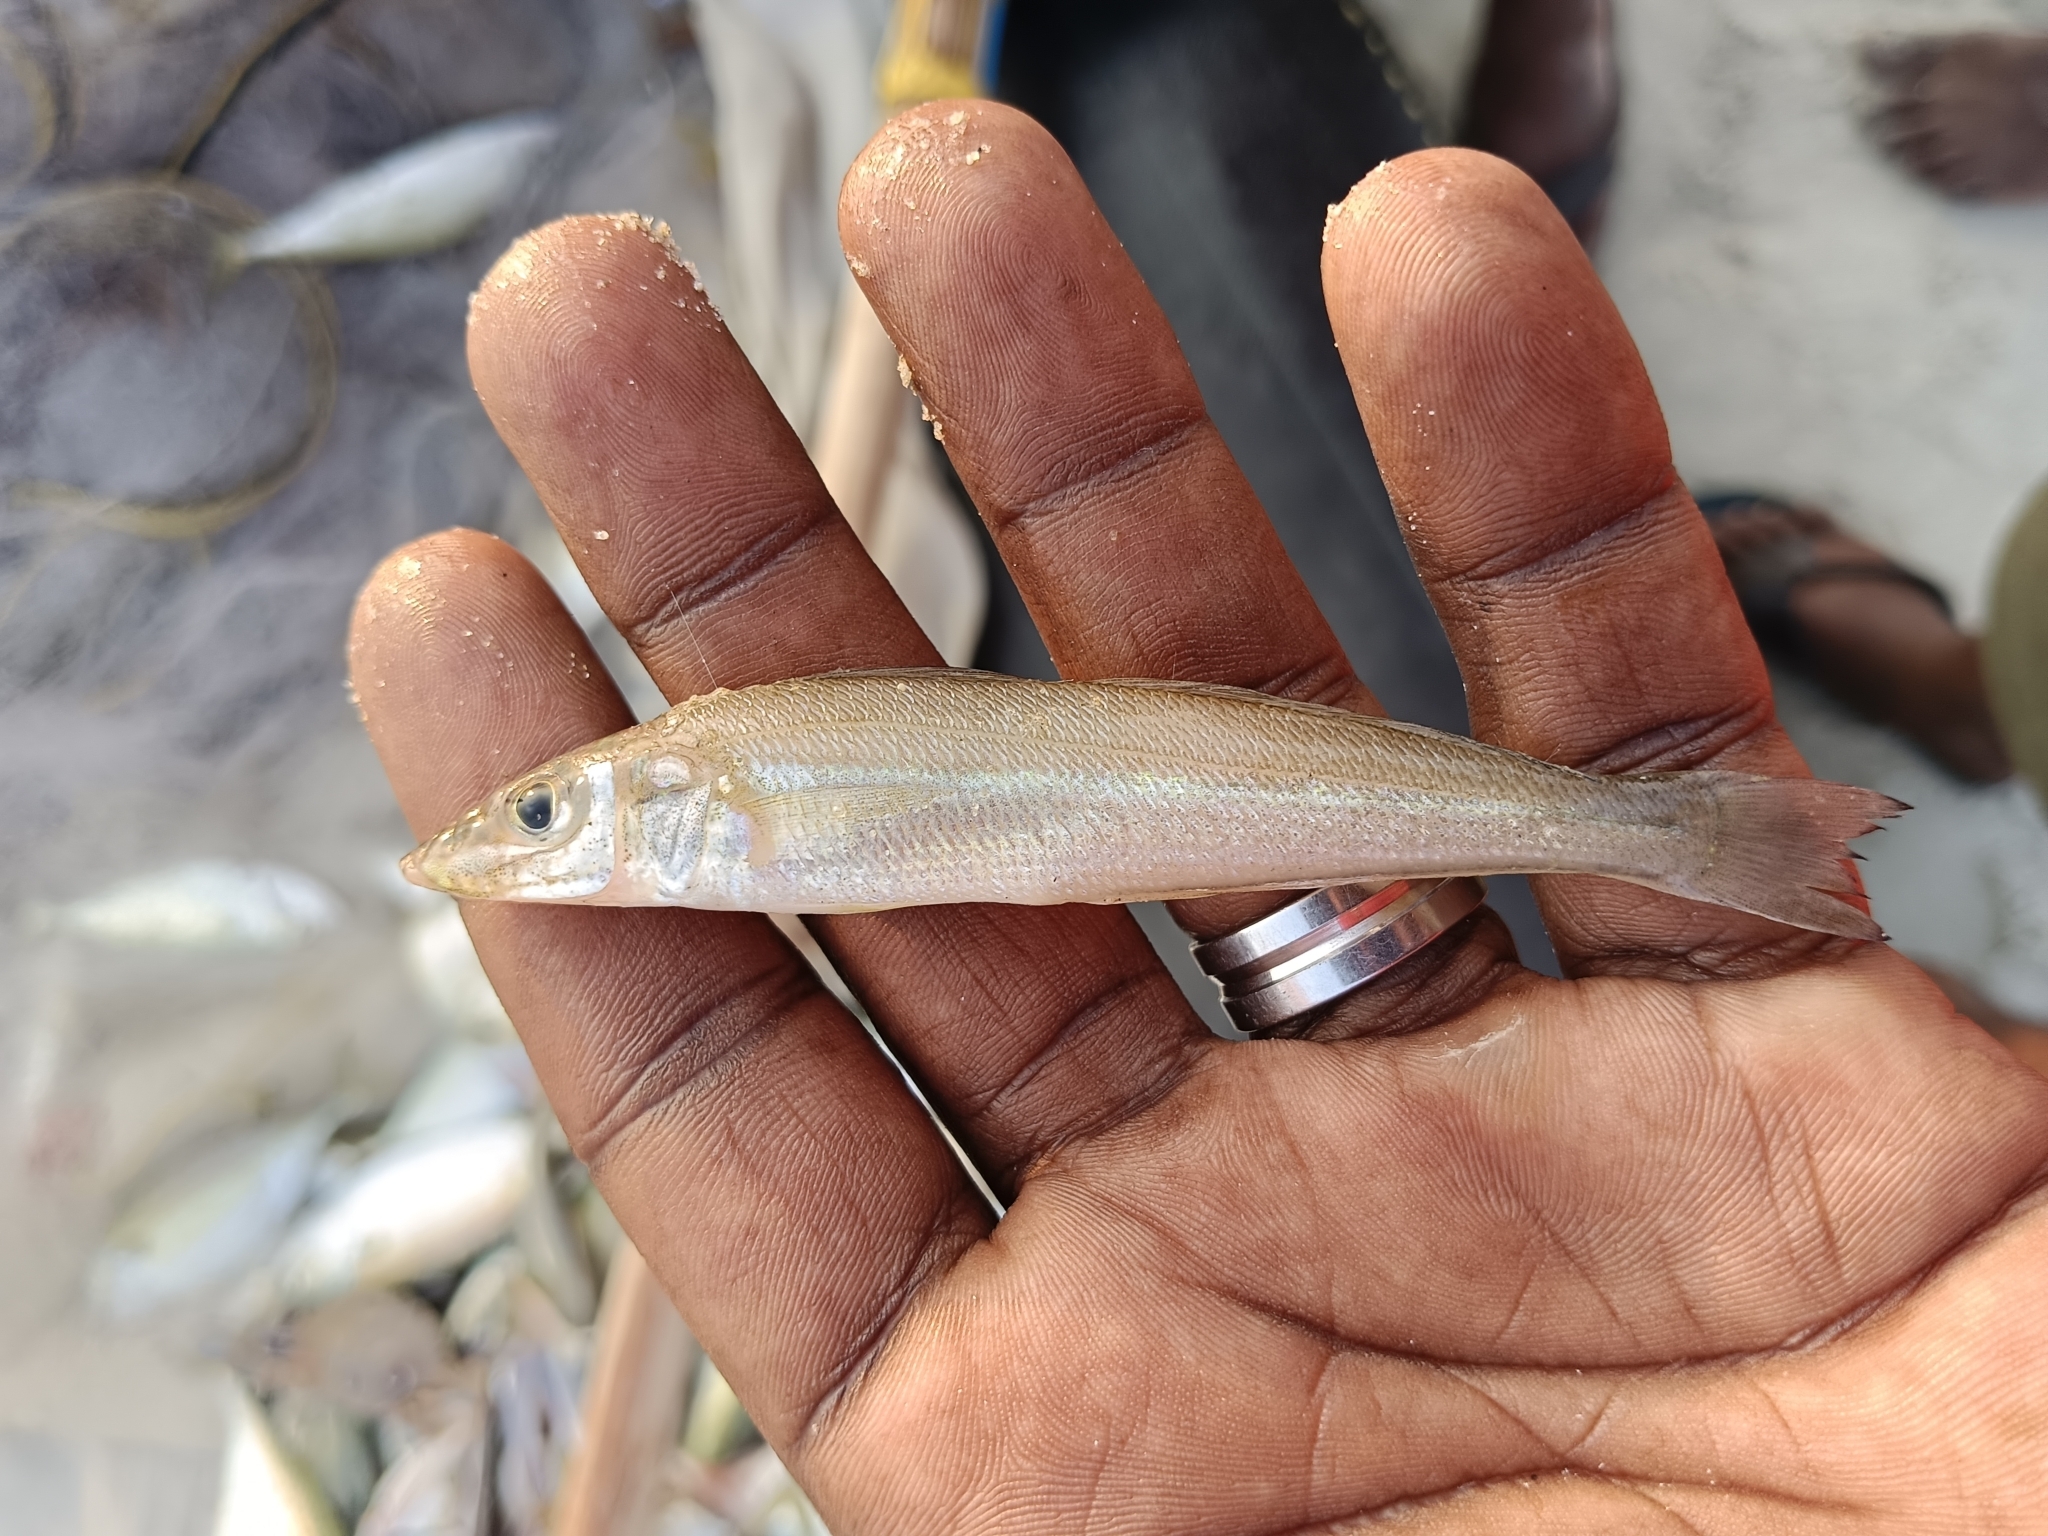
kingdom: Animalia
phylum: Chordata
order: Perciformes
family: Sillaginidae
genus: Sillago
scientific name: Sillago sihama
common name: Silver sillago
